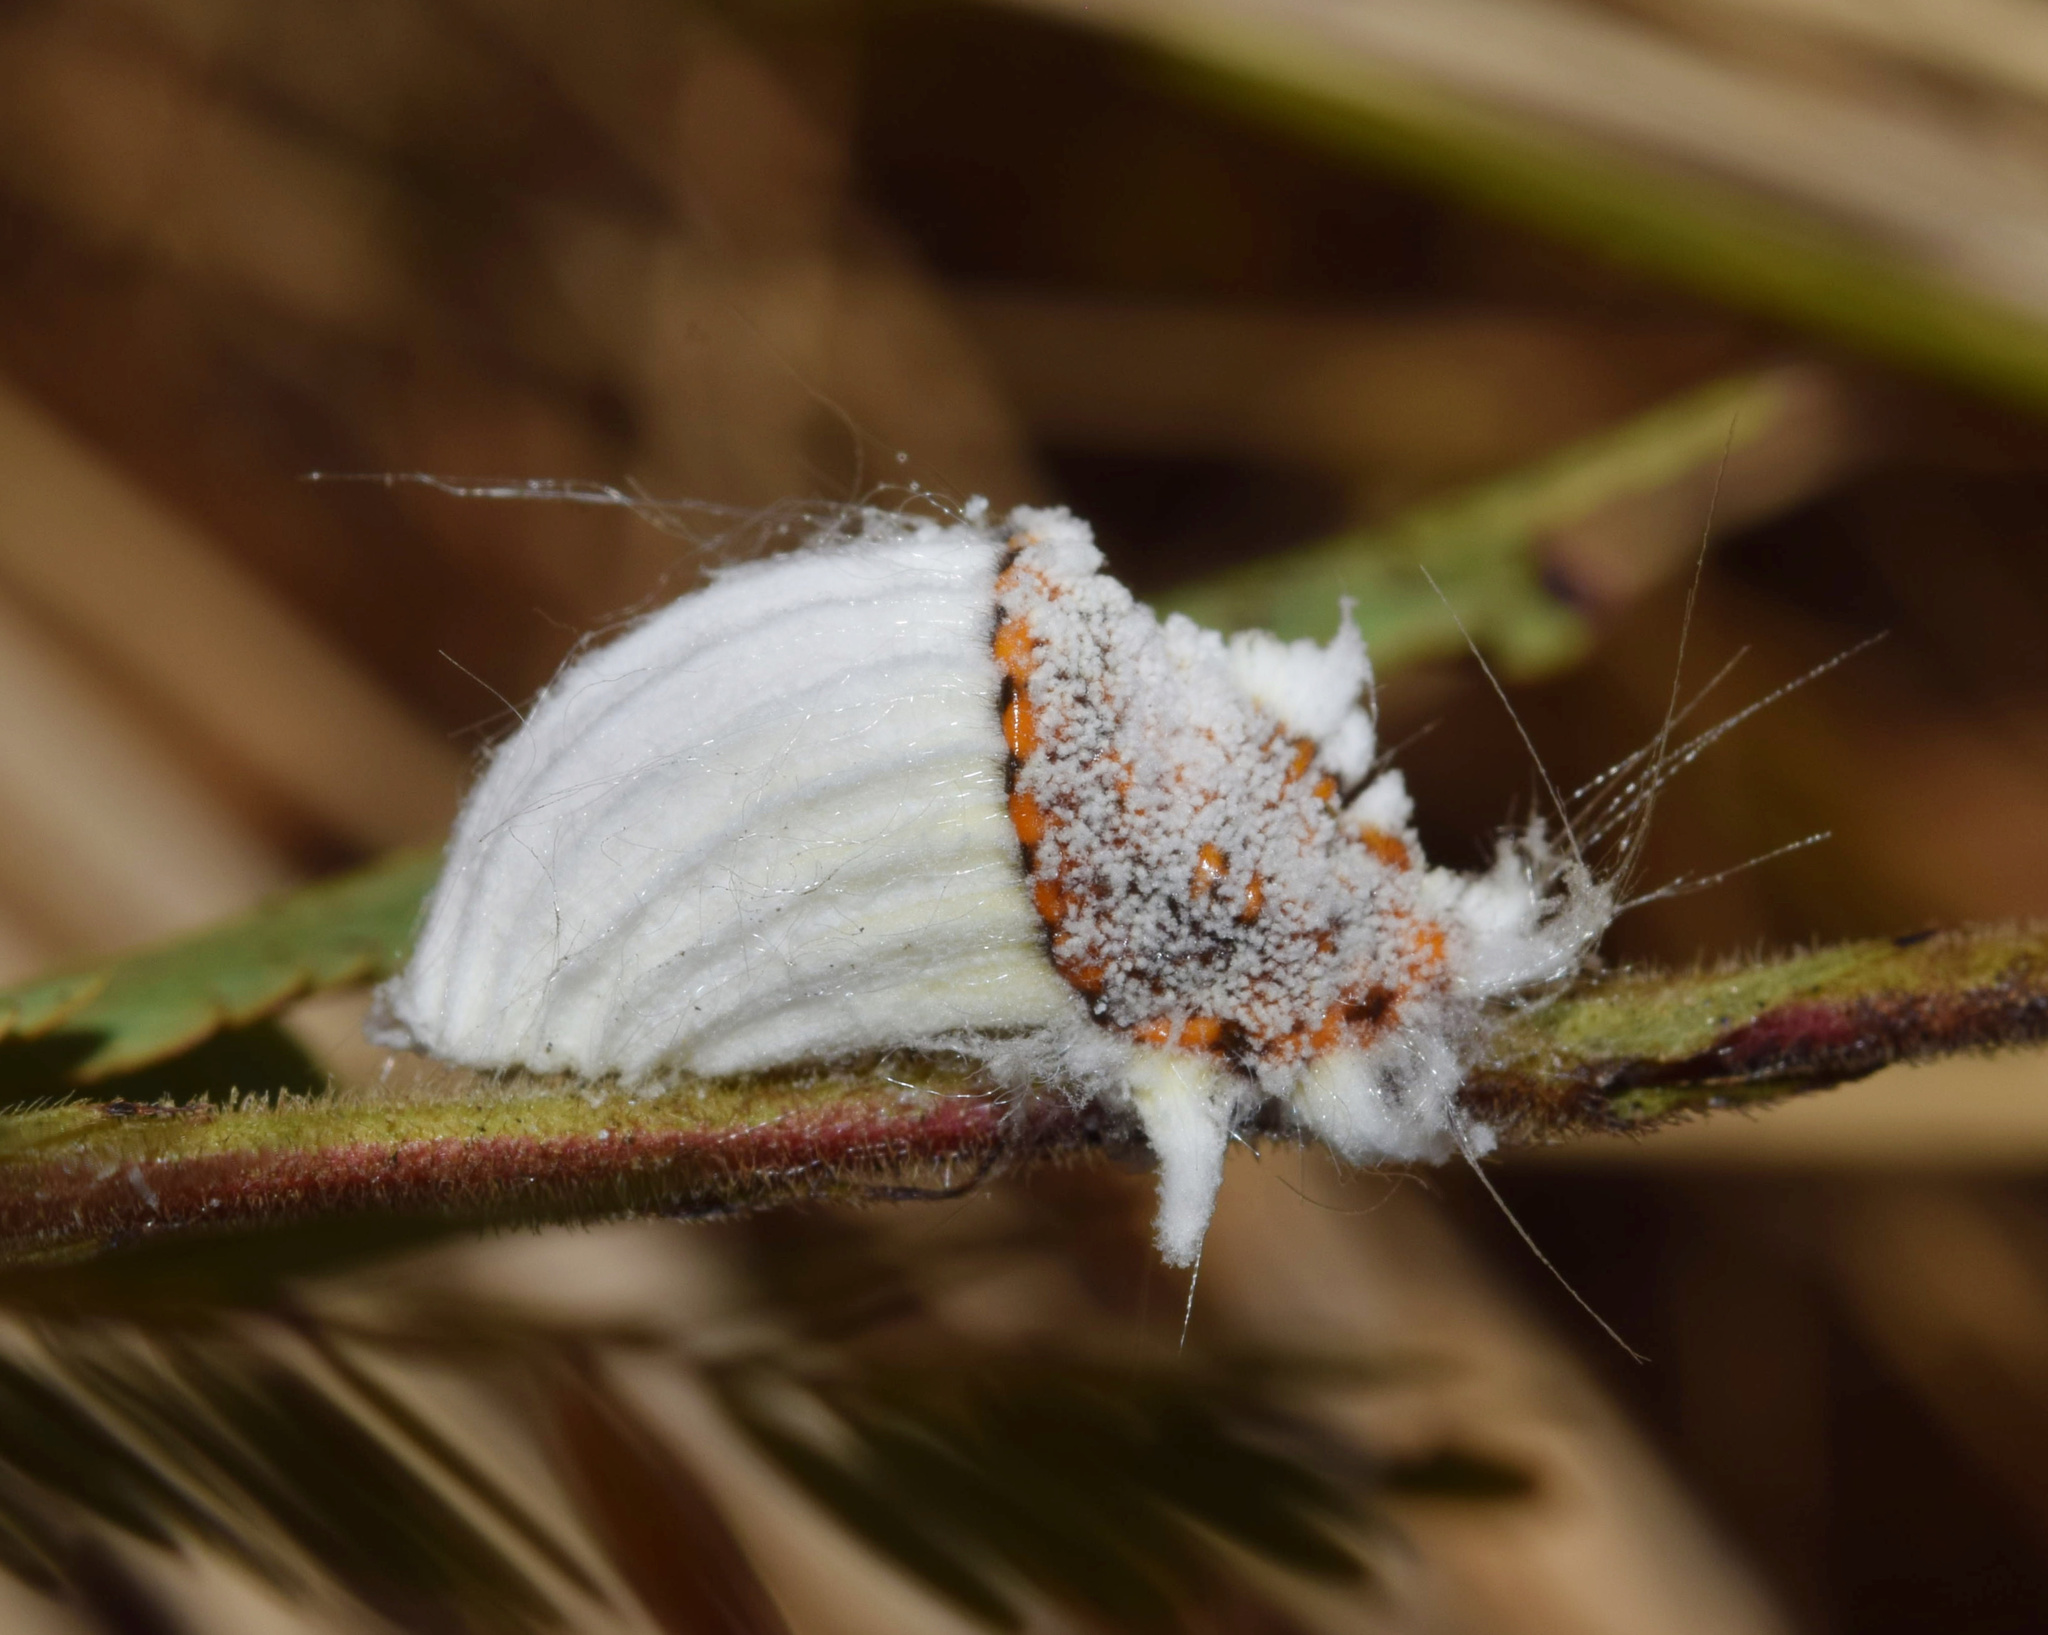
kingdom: Animalia
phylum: Arthropoda
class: Insecta
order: Hemiptera
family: Margarodidae
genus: Icerya
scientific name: Icerya purchasi
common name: Cottony cushion scale
